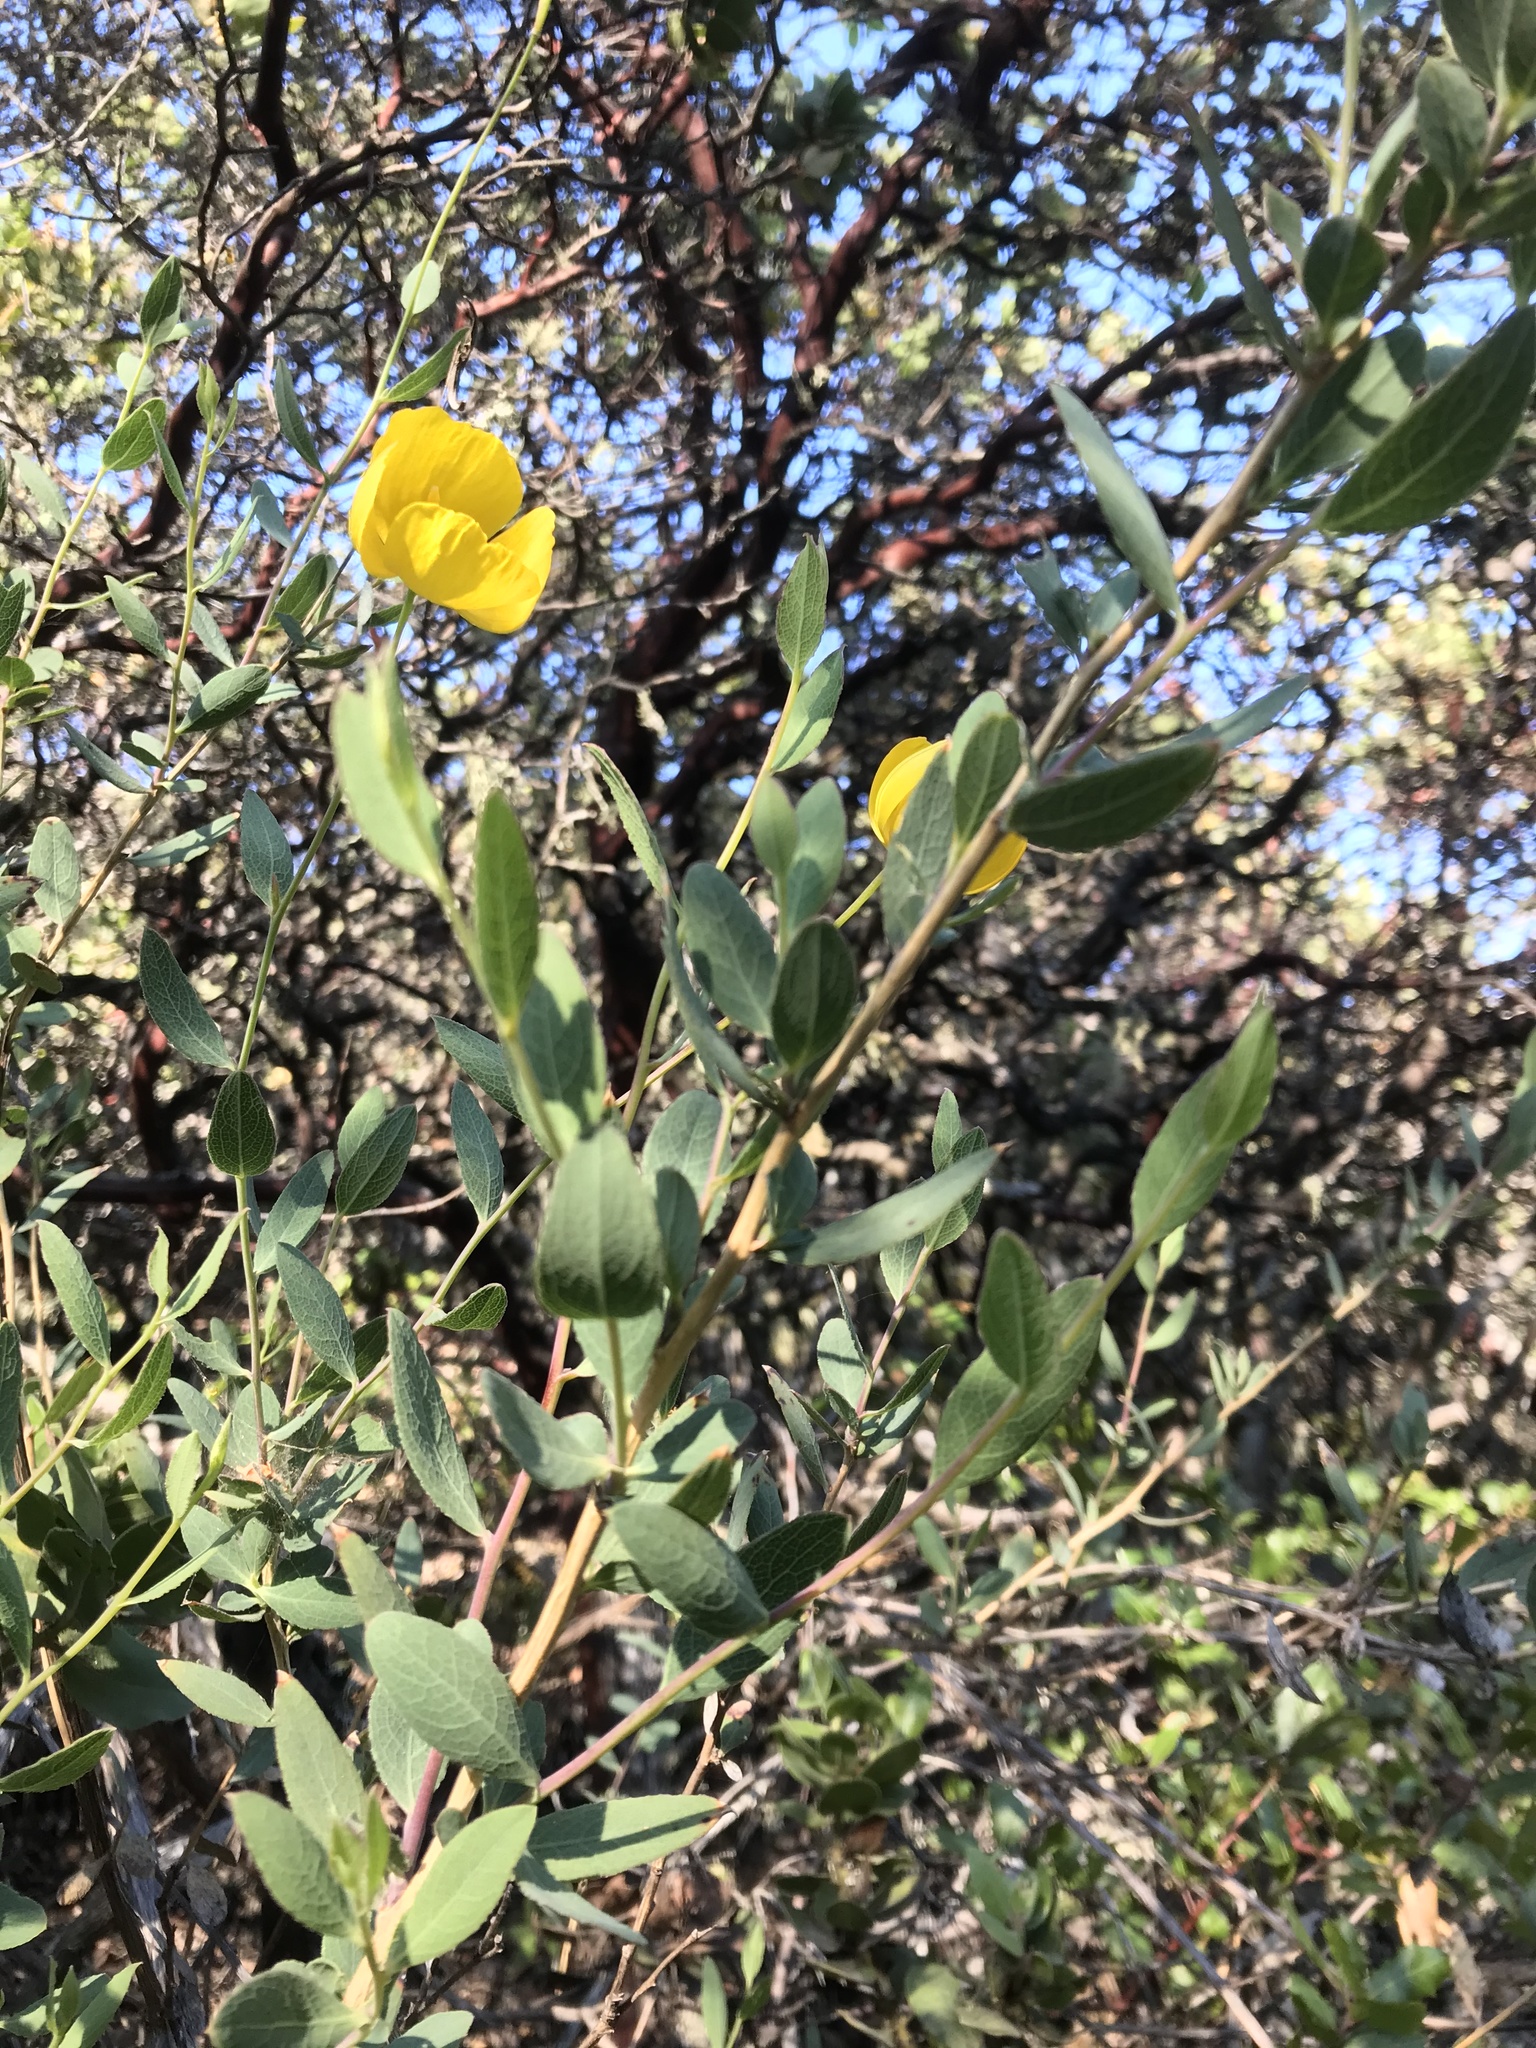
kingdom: Plantae
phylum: Tracheophyta
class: Magnoliopsida
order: Ranunculales
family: Papaveraceae
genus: Dendromecon
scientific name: Dendromecon rigida
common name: Tree poppy
